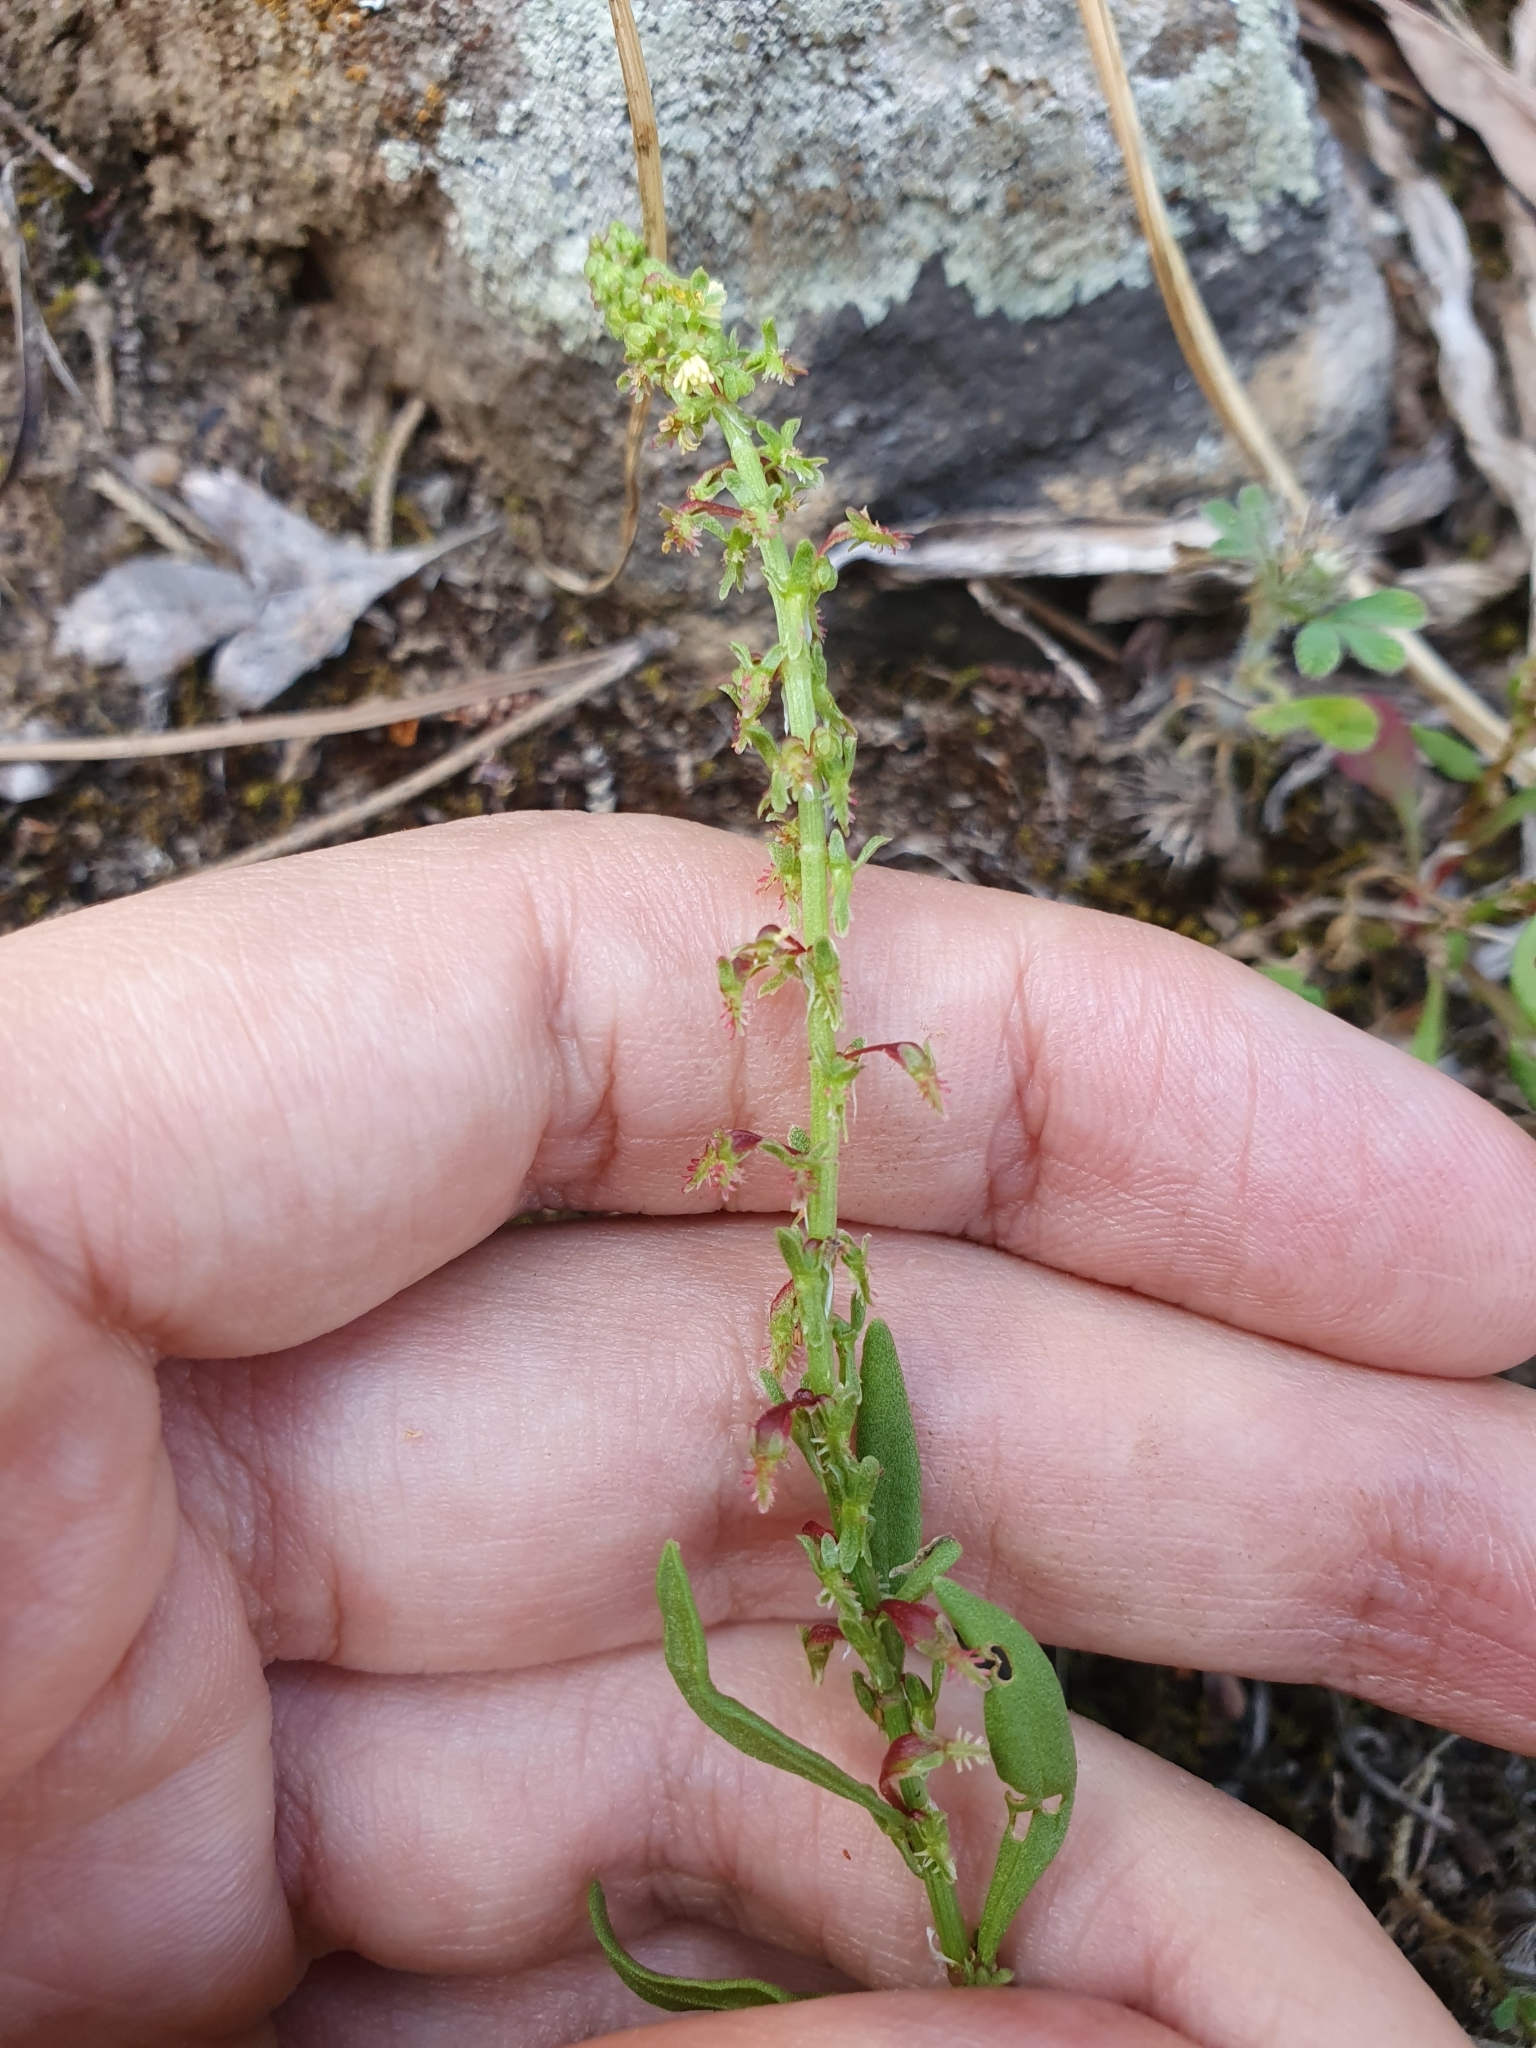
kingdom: Plantae
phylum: Tracheophyta
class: Magnoliopsida
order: Caryophyllales
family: Polygonaceae
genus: Rumex
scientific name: Rumex bucephalophorus
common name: Red dock
